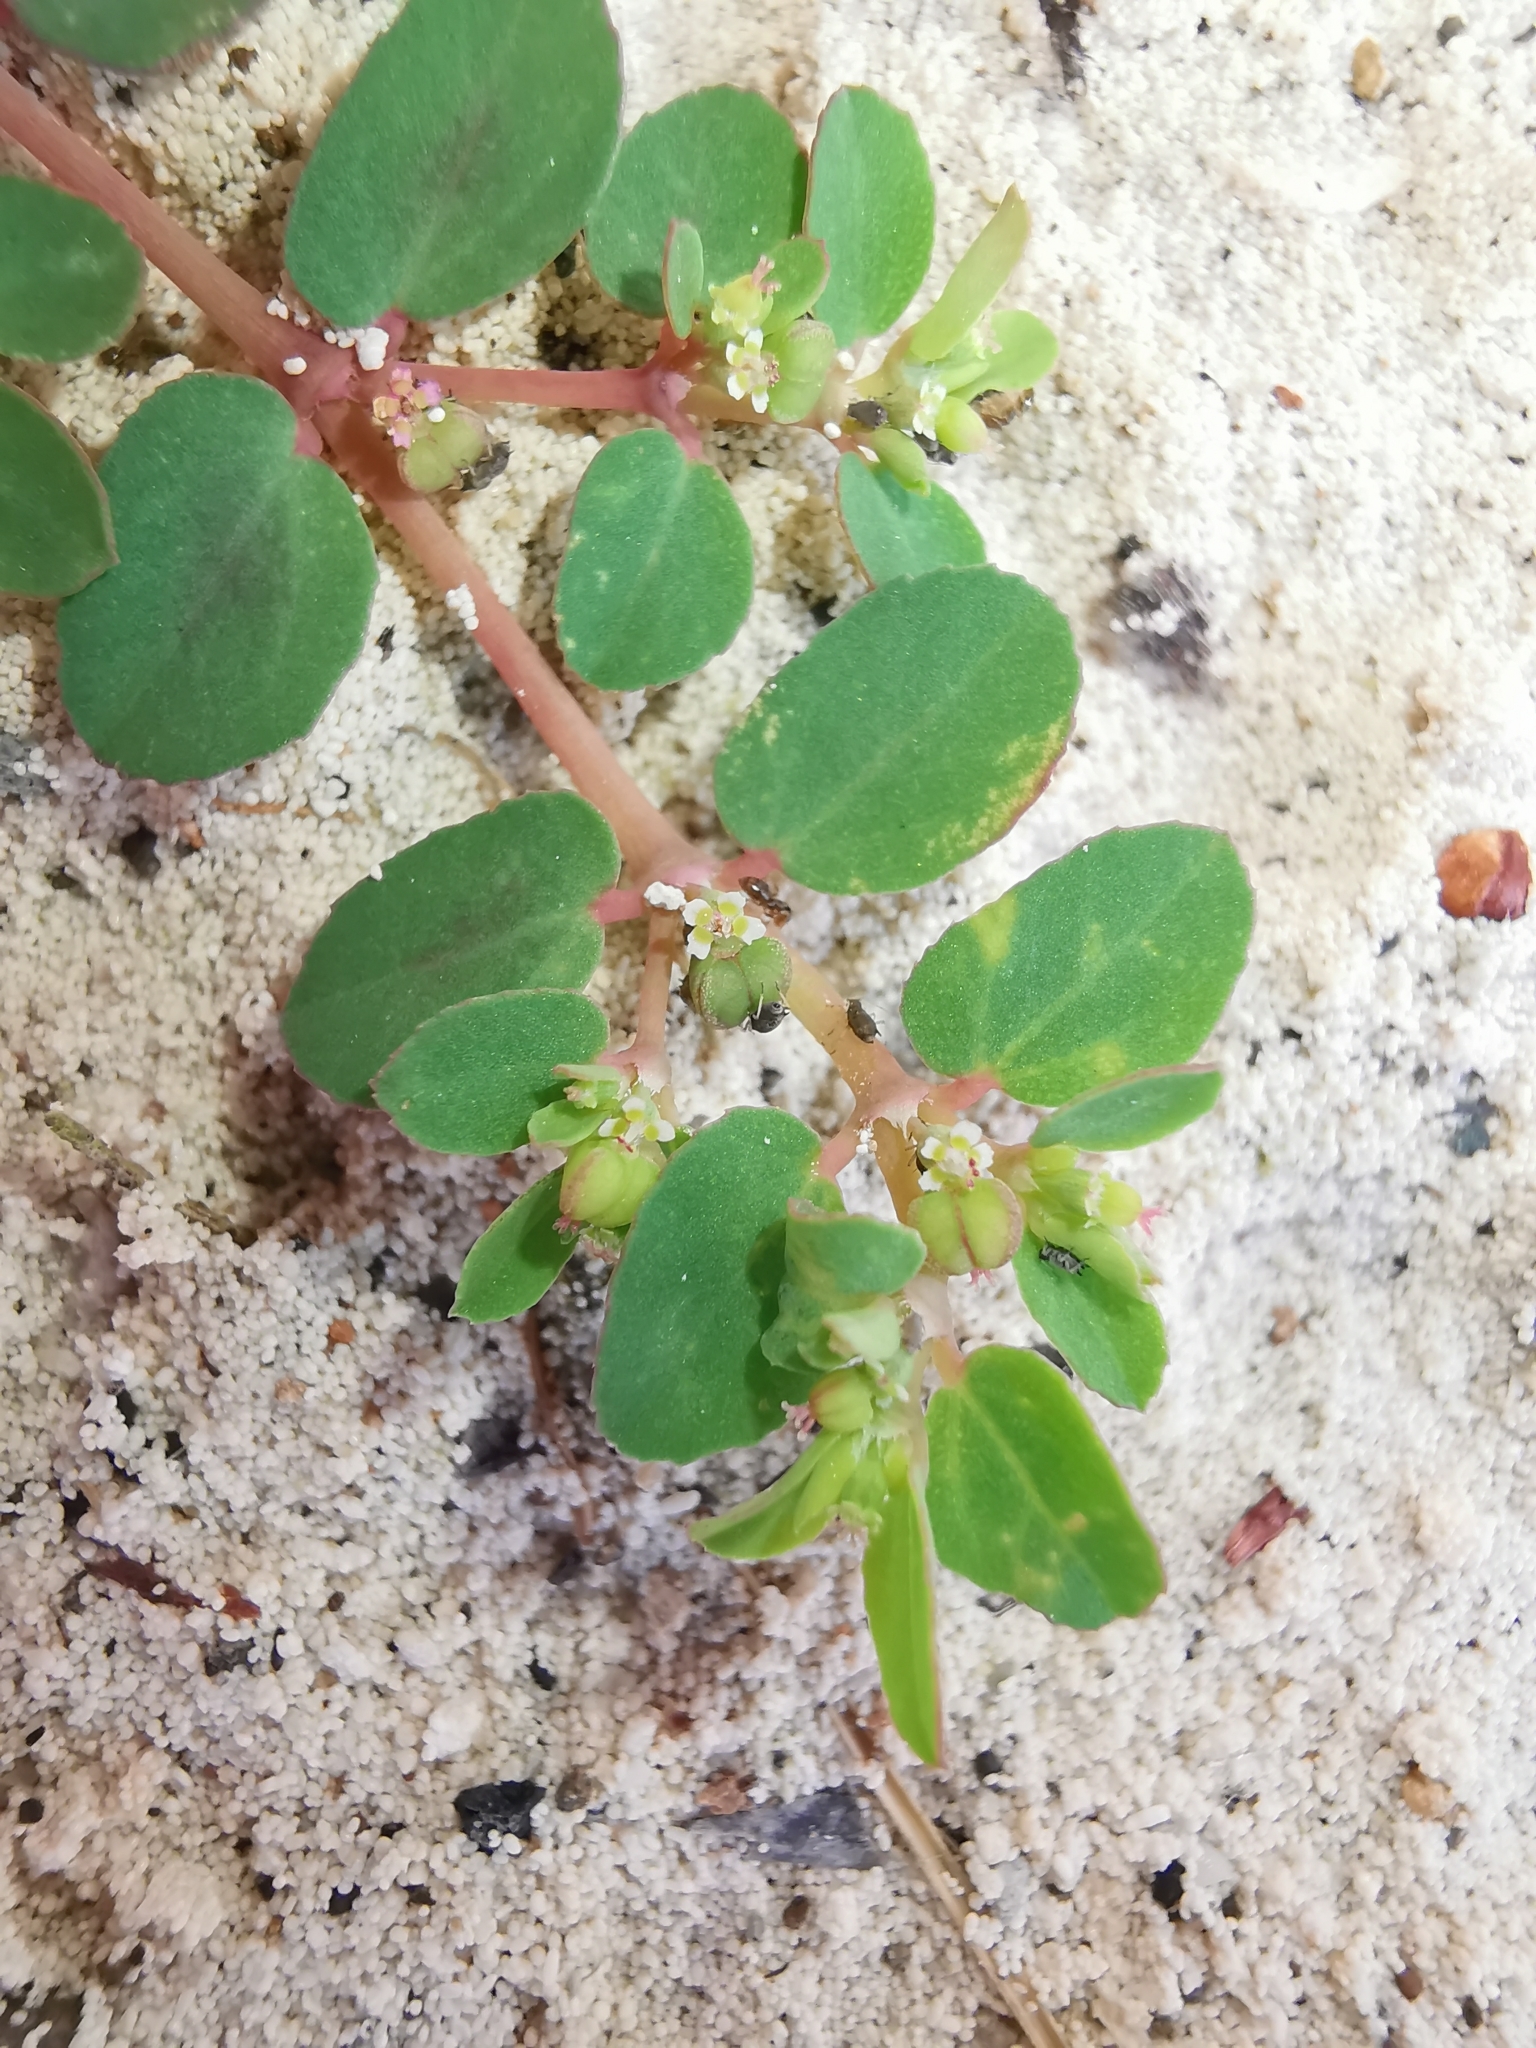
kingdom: Plantae
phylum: Tracheophyta
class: Magnoliopsida
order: Malpighiales
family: Euphorbiaceae
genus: Euphorbia
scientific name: Euphorbia blodgettii
